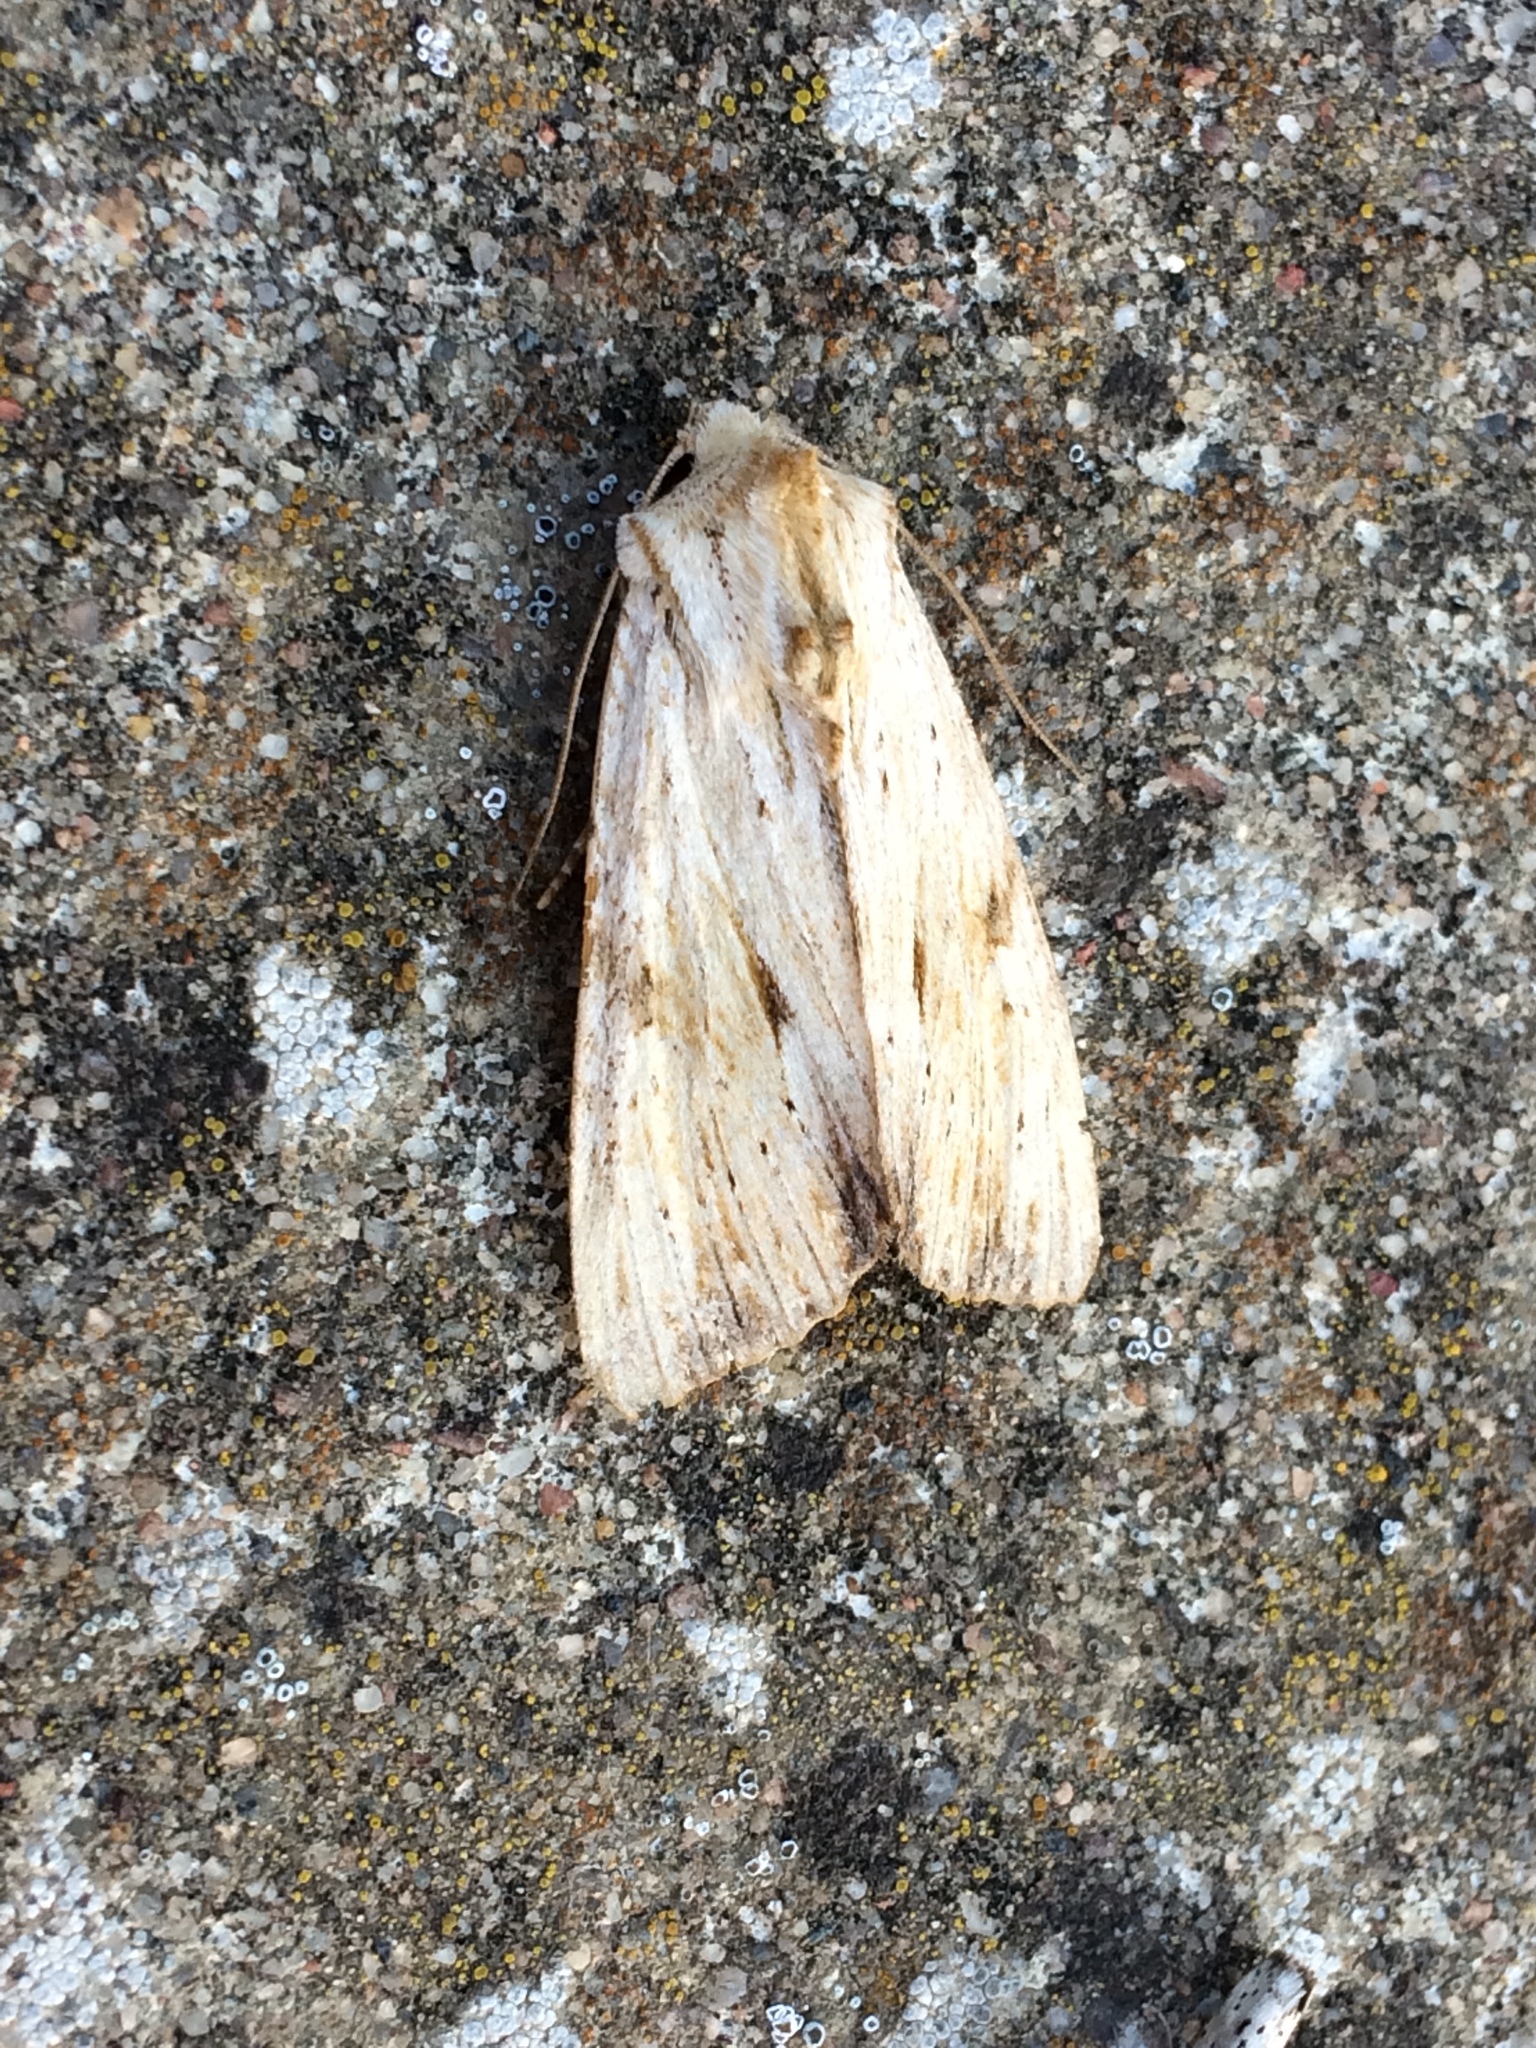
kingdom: Animalia
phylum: Arthropoda
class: Insecta
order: Lepidoptera
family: Noctuidae
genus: Apamea
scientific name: Apamea lithoxylaea
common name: Light arches
